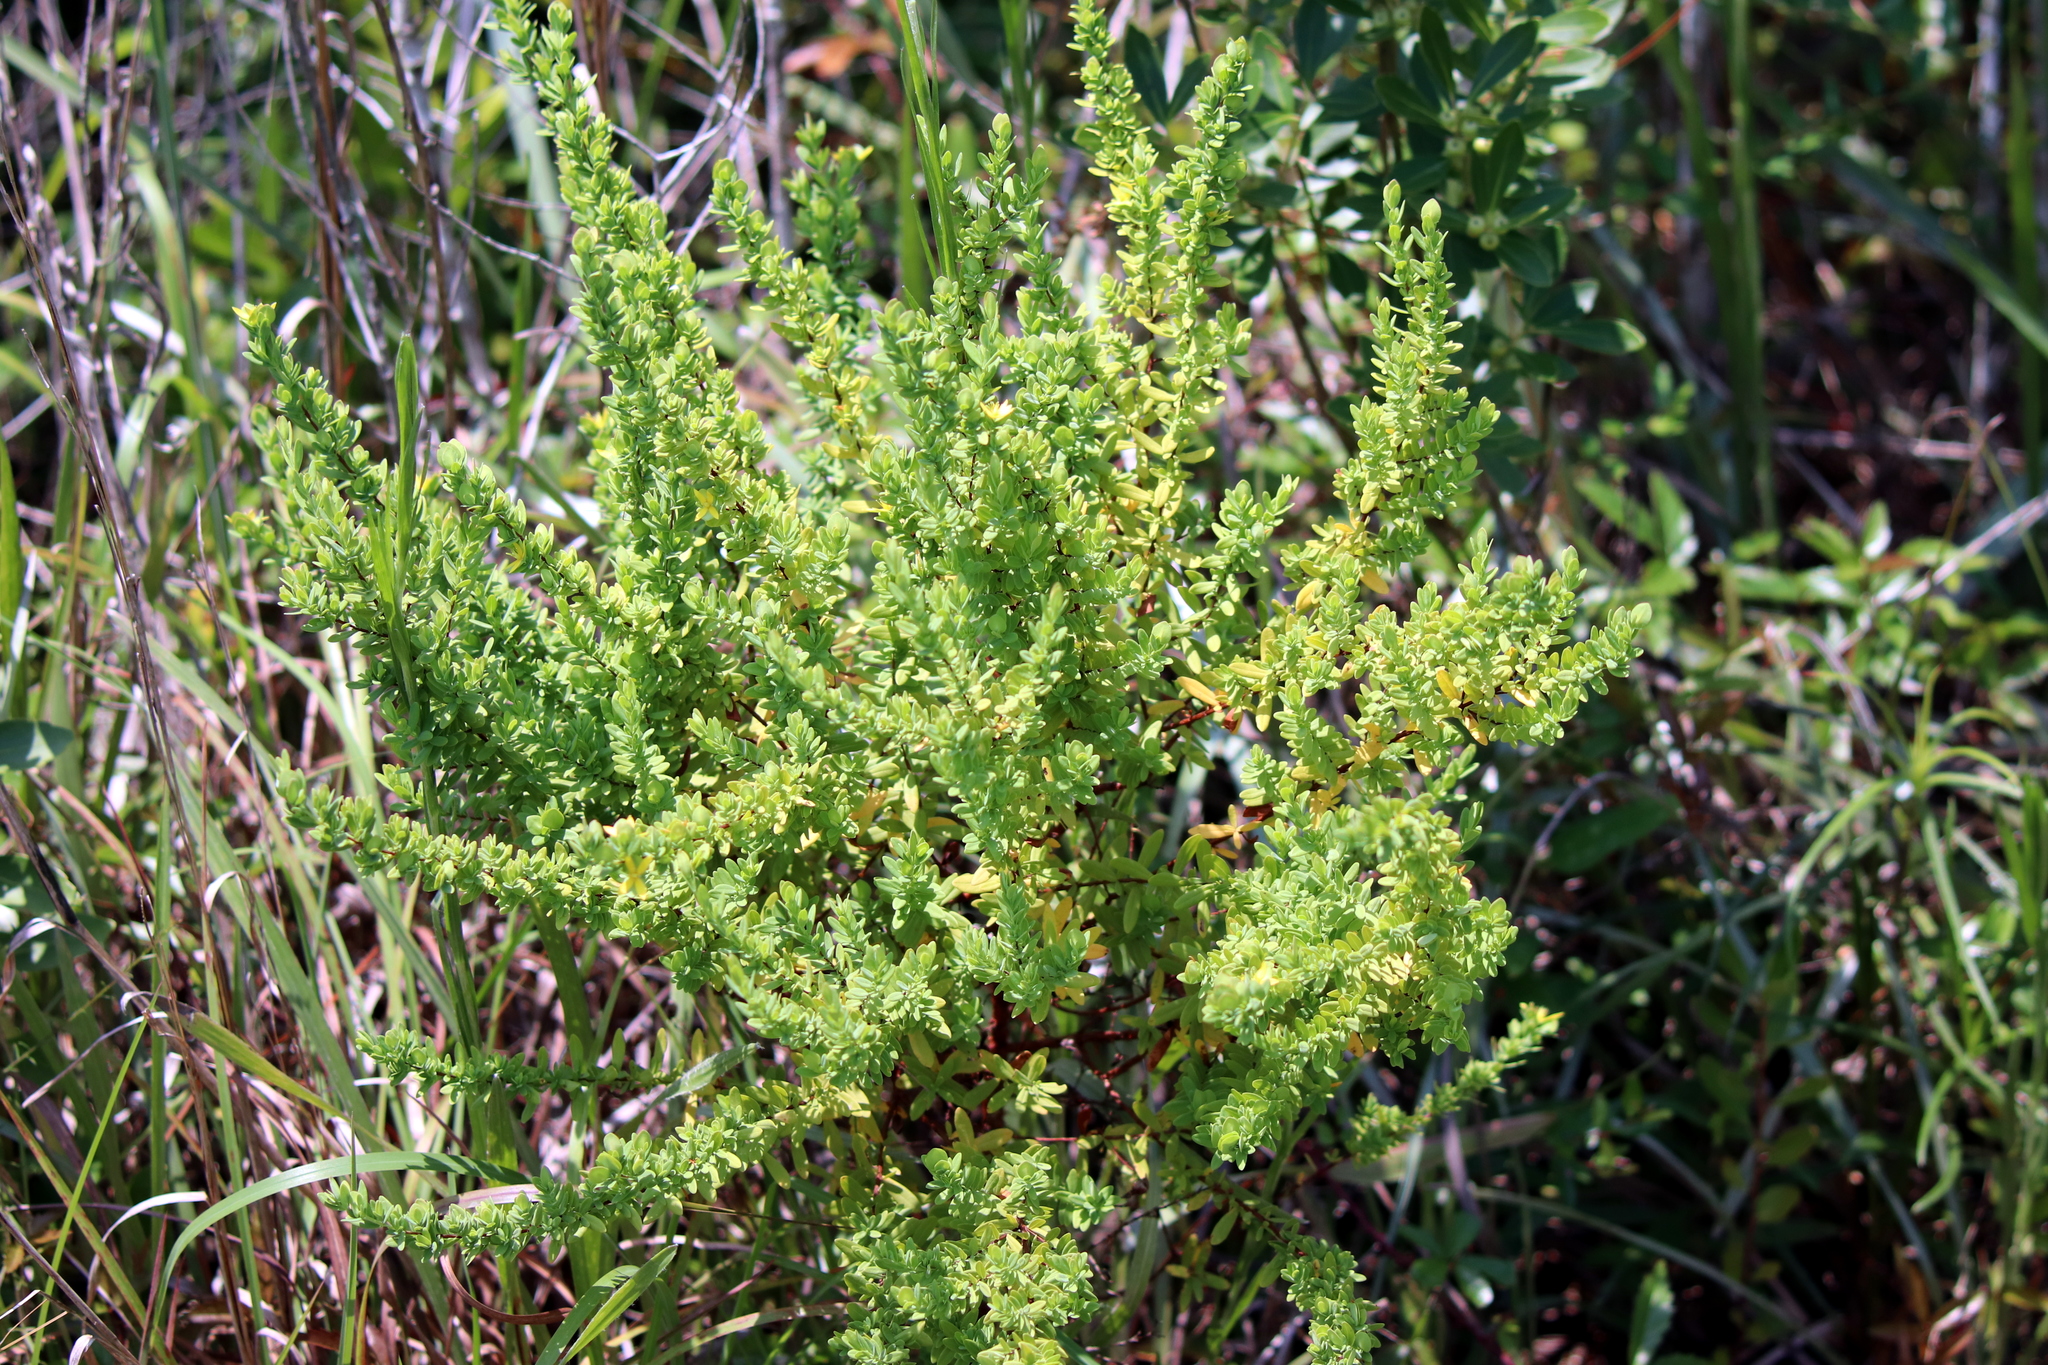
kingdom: Plantae
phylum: Tracheophyta
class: Magnoliopsida
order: Malpighiales
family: Hypericaceae
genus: Hypericum
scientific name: Hypericum crux-andreae
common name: St.-peter's-wort
